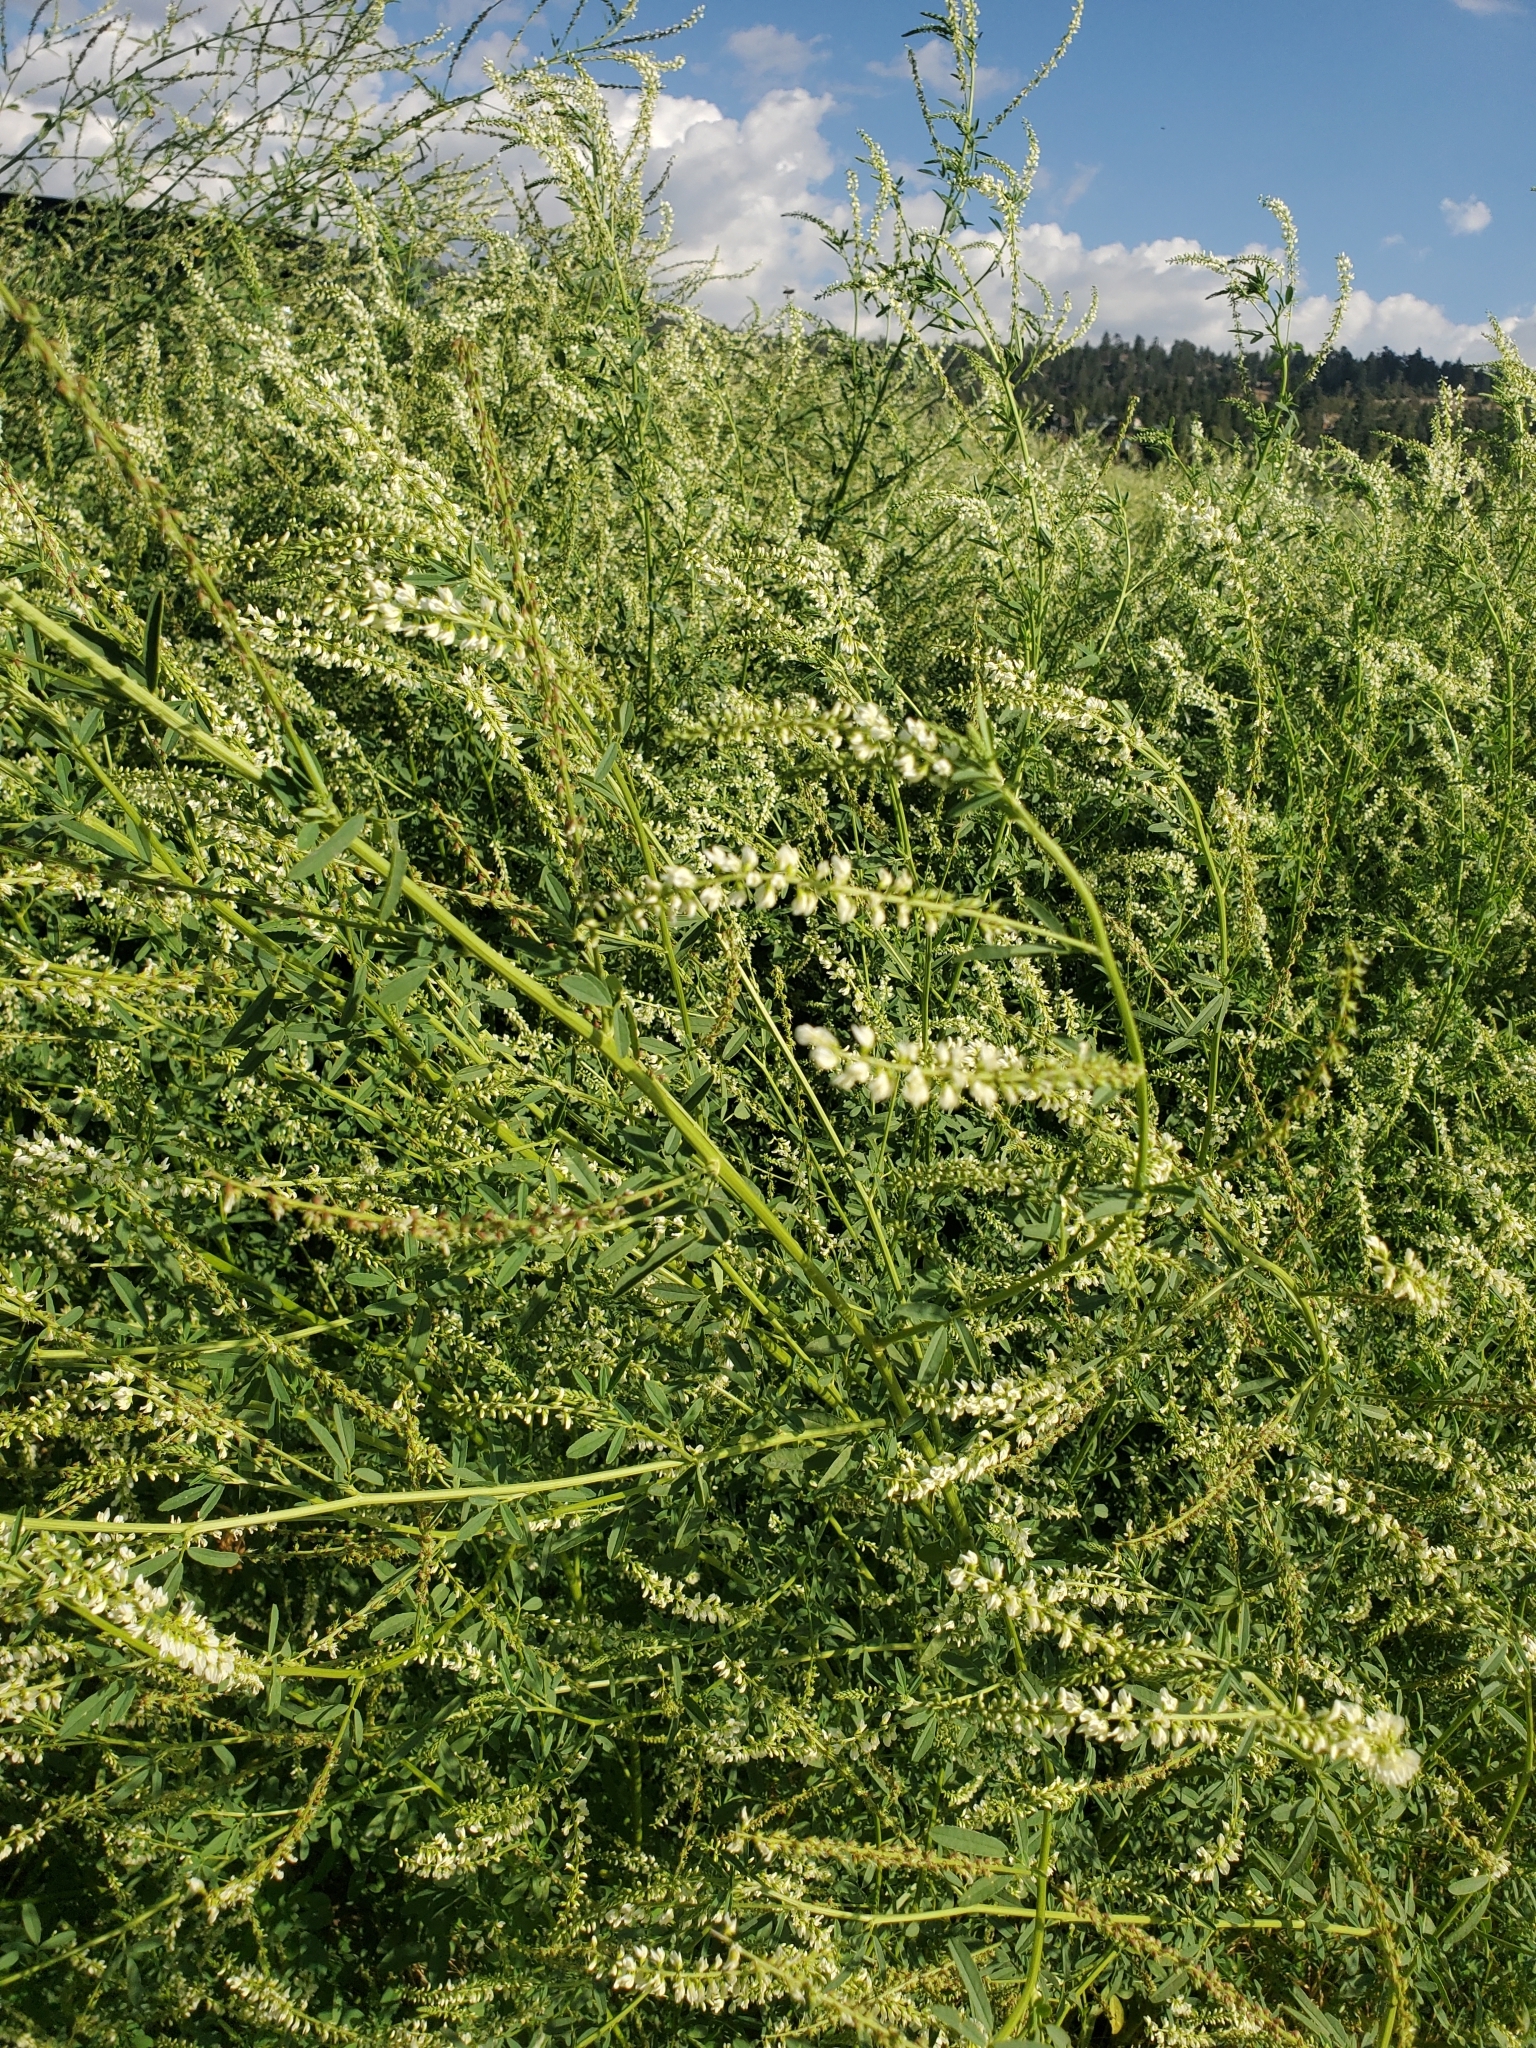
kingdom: Plantae
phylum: Tracheophyta
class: Magnoliopsida
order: Fabales
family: Fabaceae
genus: Melilotus
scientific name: Melilotus albus
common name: White melilot
